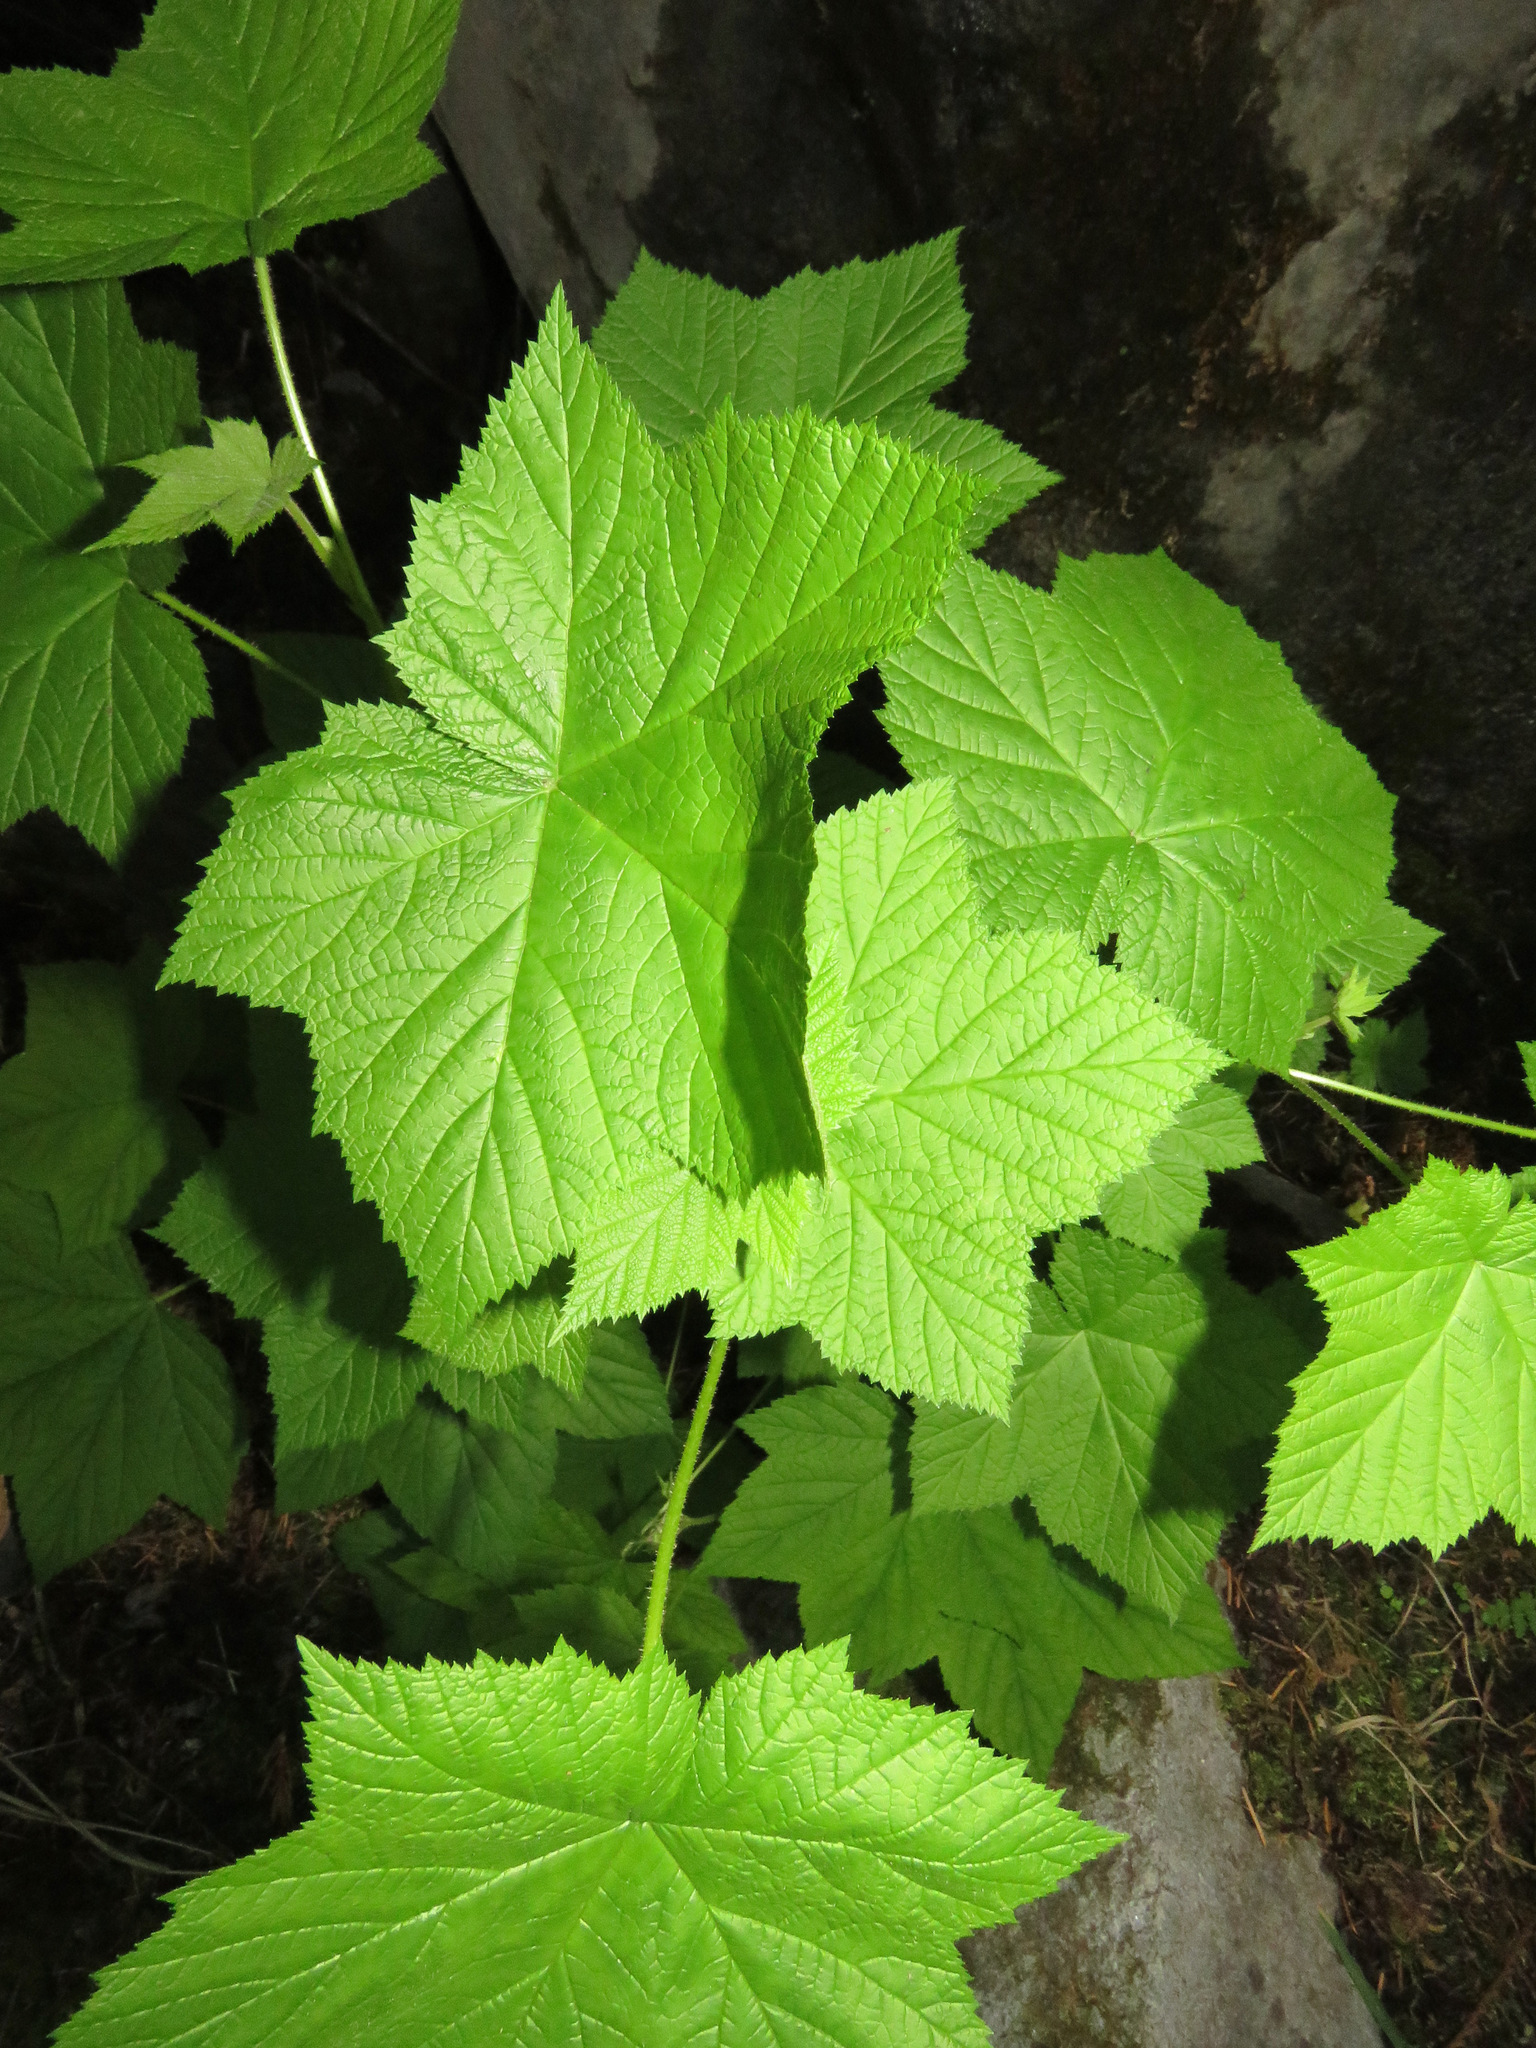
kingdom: Plantae
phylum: Tracheophyta
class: Magnoliopsida
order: Rosales
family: Rosaceae
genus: Rubus
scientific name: Rubus parviflorus
